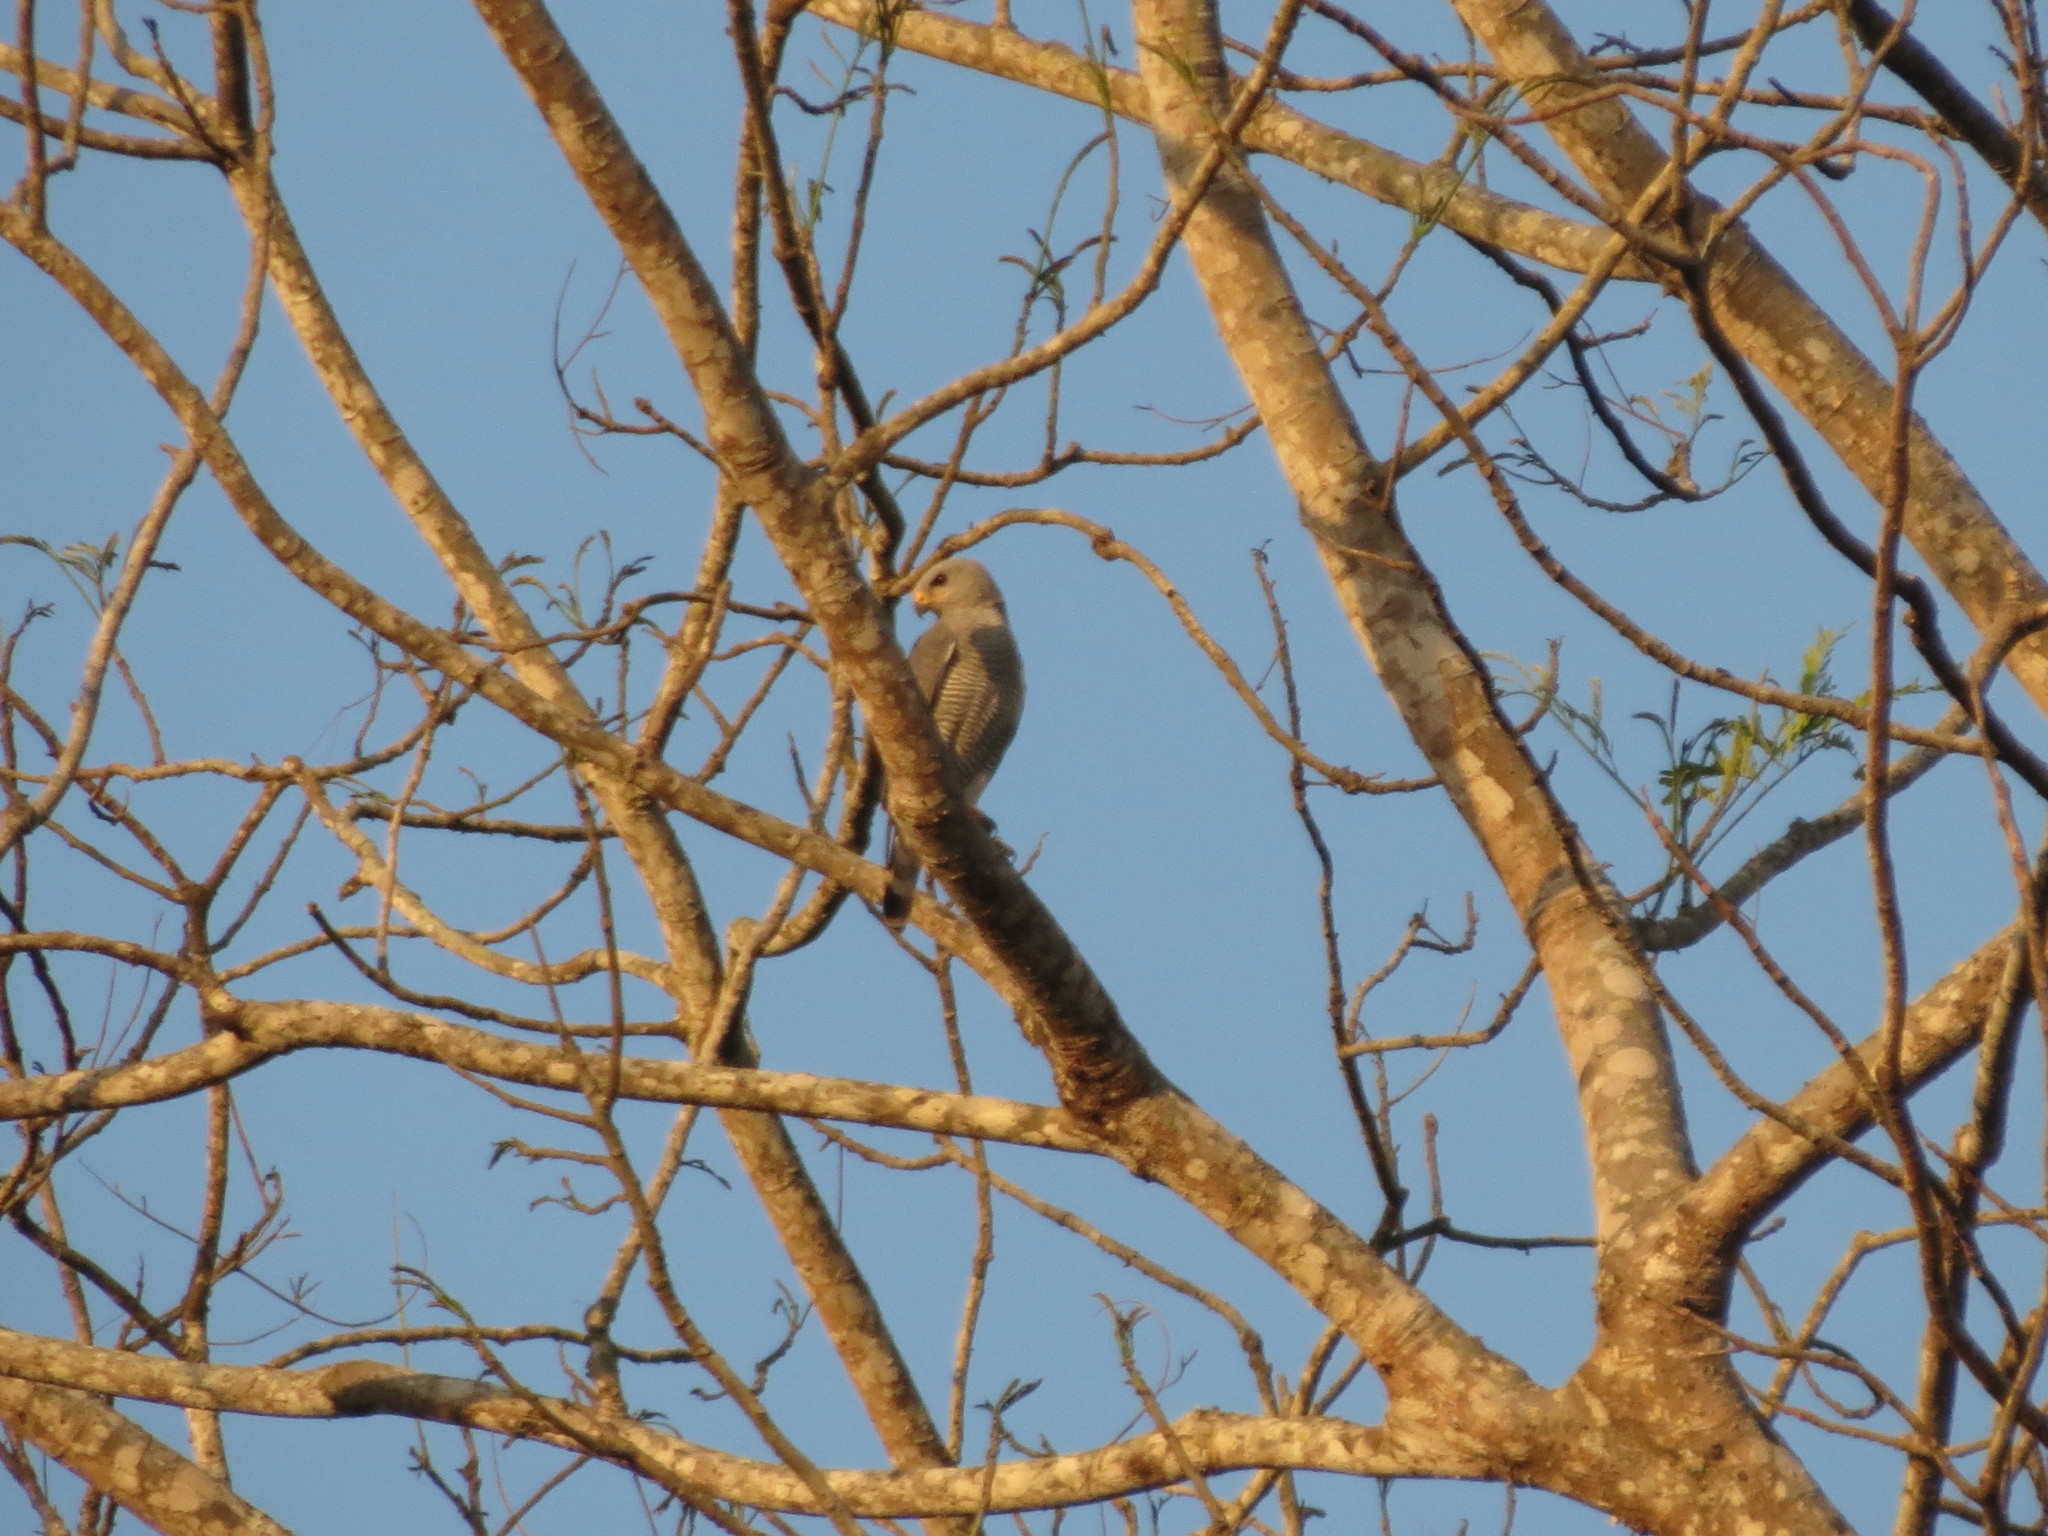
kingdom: Animalia
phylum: Chordata
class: Aves
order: Accipitriformes
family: Accipitridae
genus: Buteo
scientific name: Buteo nitidus
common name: Grey-lined hawk
